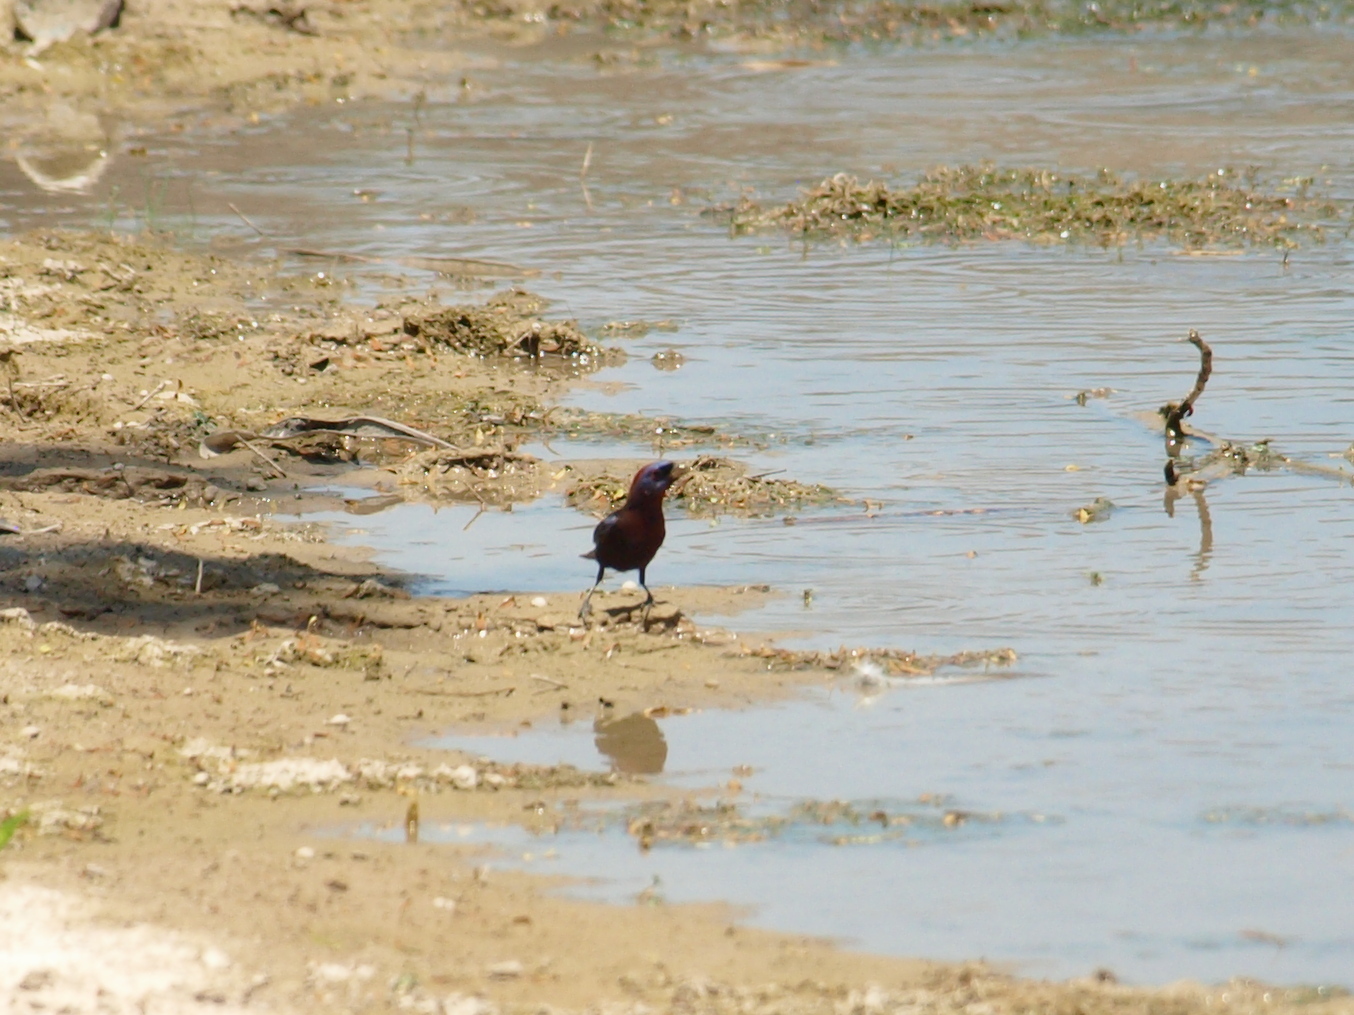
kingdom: Animalia
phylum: Chordata
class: Aves
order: Passeriformes
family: Cardinalidae
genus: Passerina
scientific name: Passerina versicolor
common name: Varied bunting
